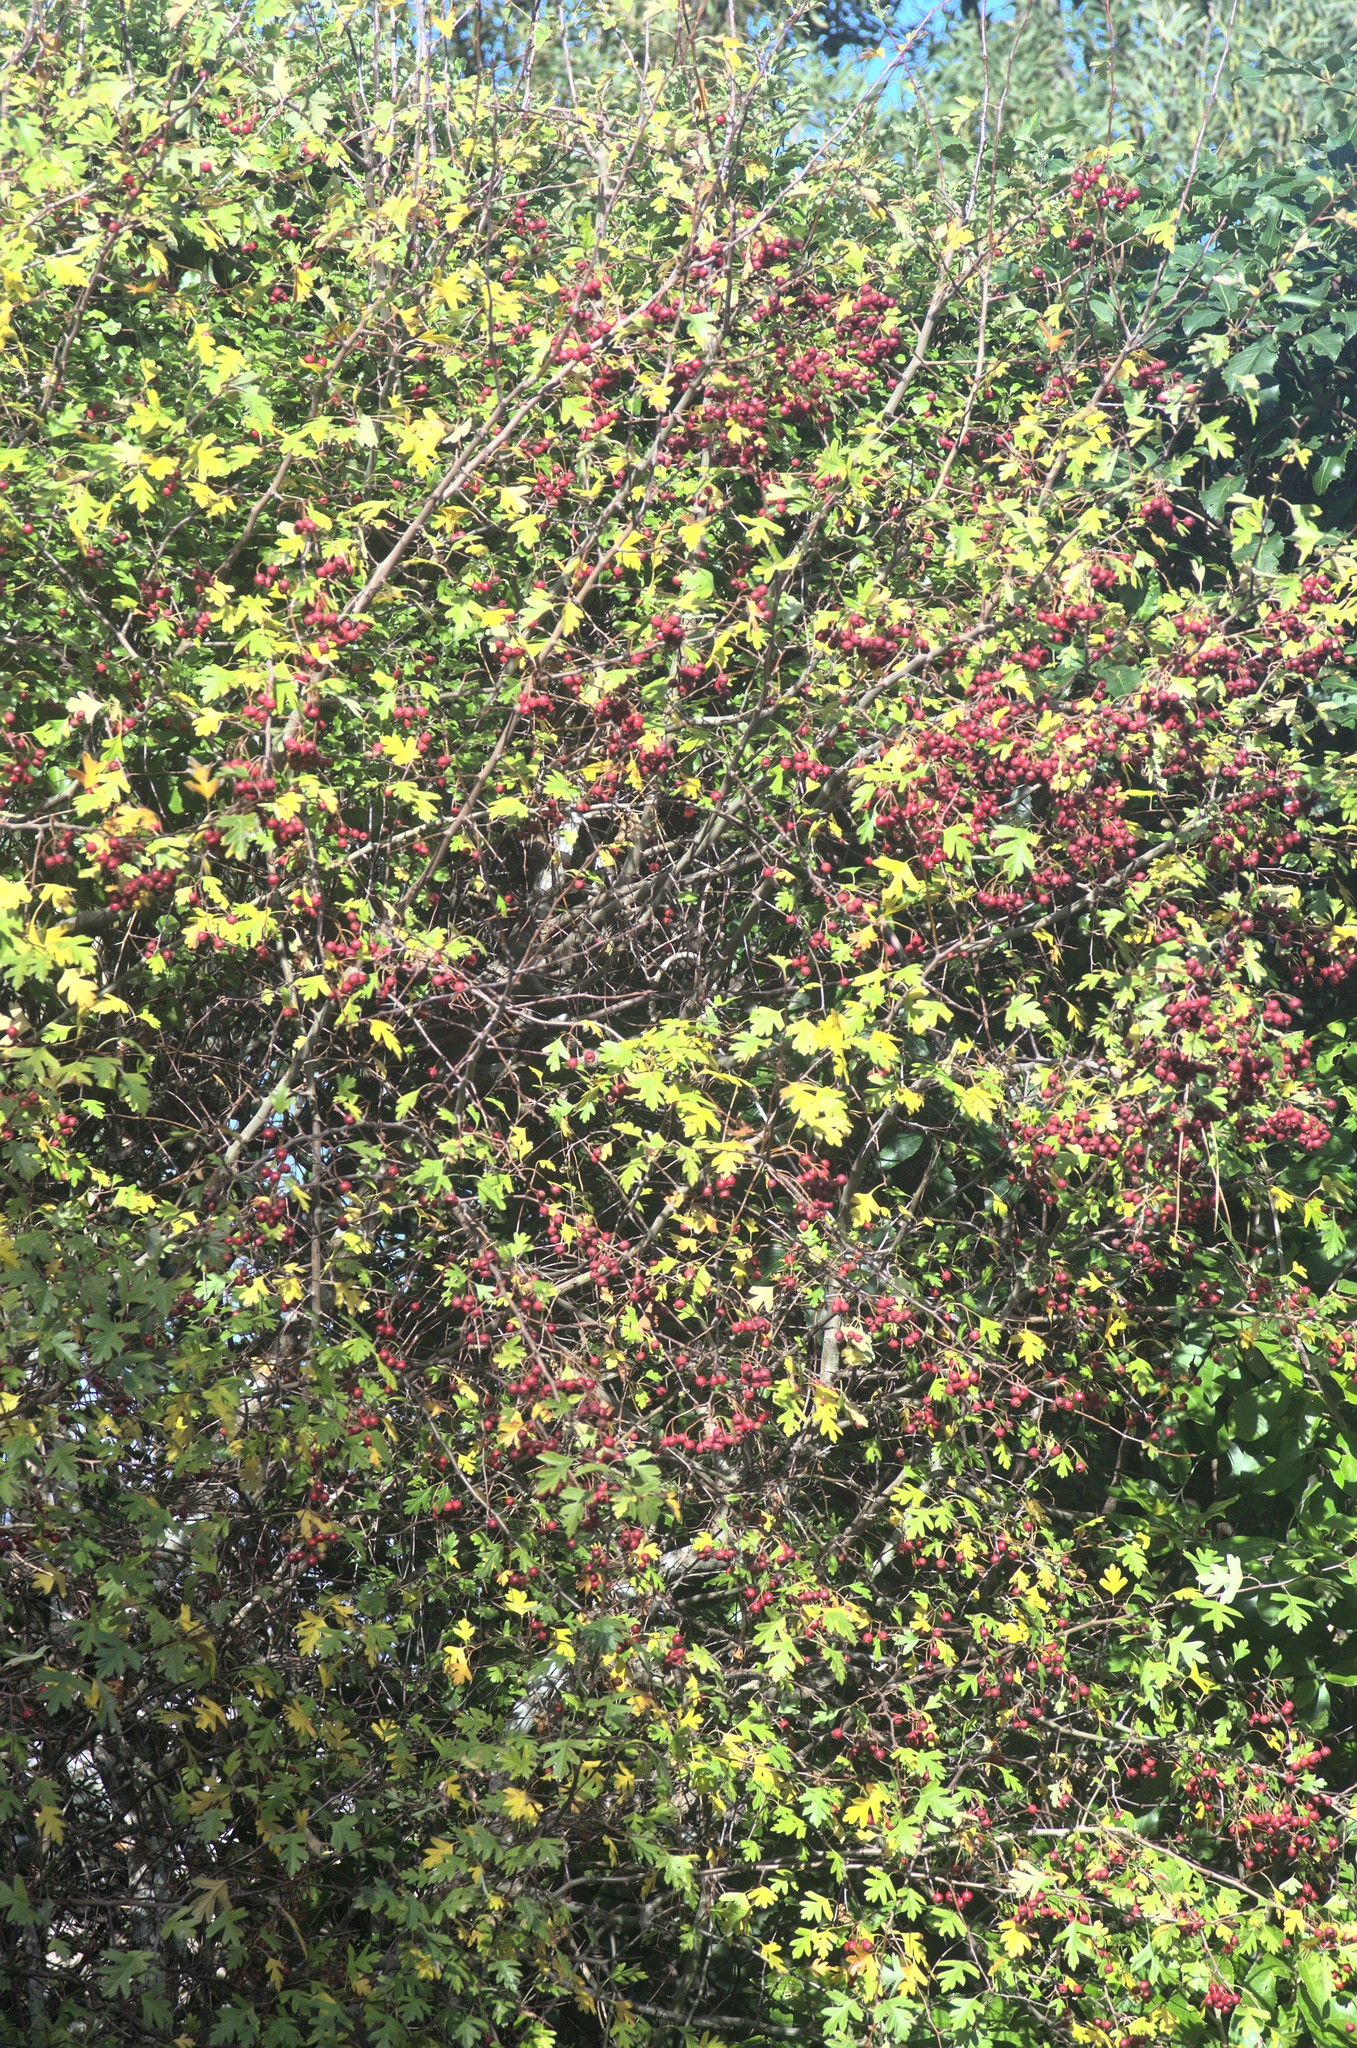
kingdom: Plantae
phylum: Tracheophyta
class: Magnoliopsida
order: Rosales
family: Rosaceae
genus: Crataegus
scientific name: Crataegus monogyna
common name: Hawthorn
